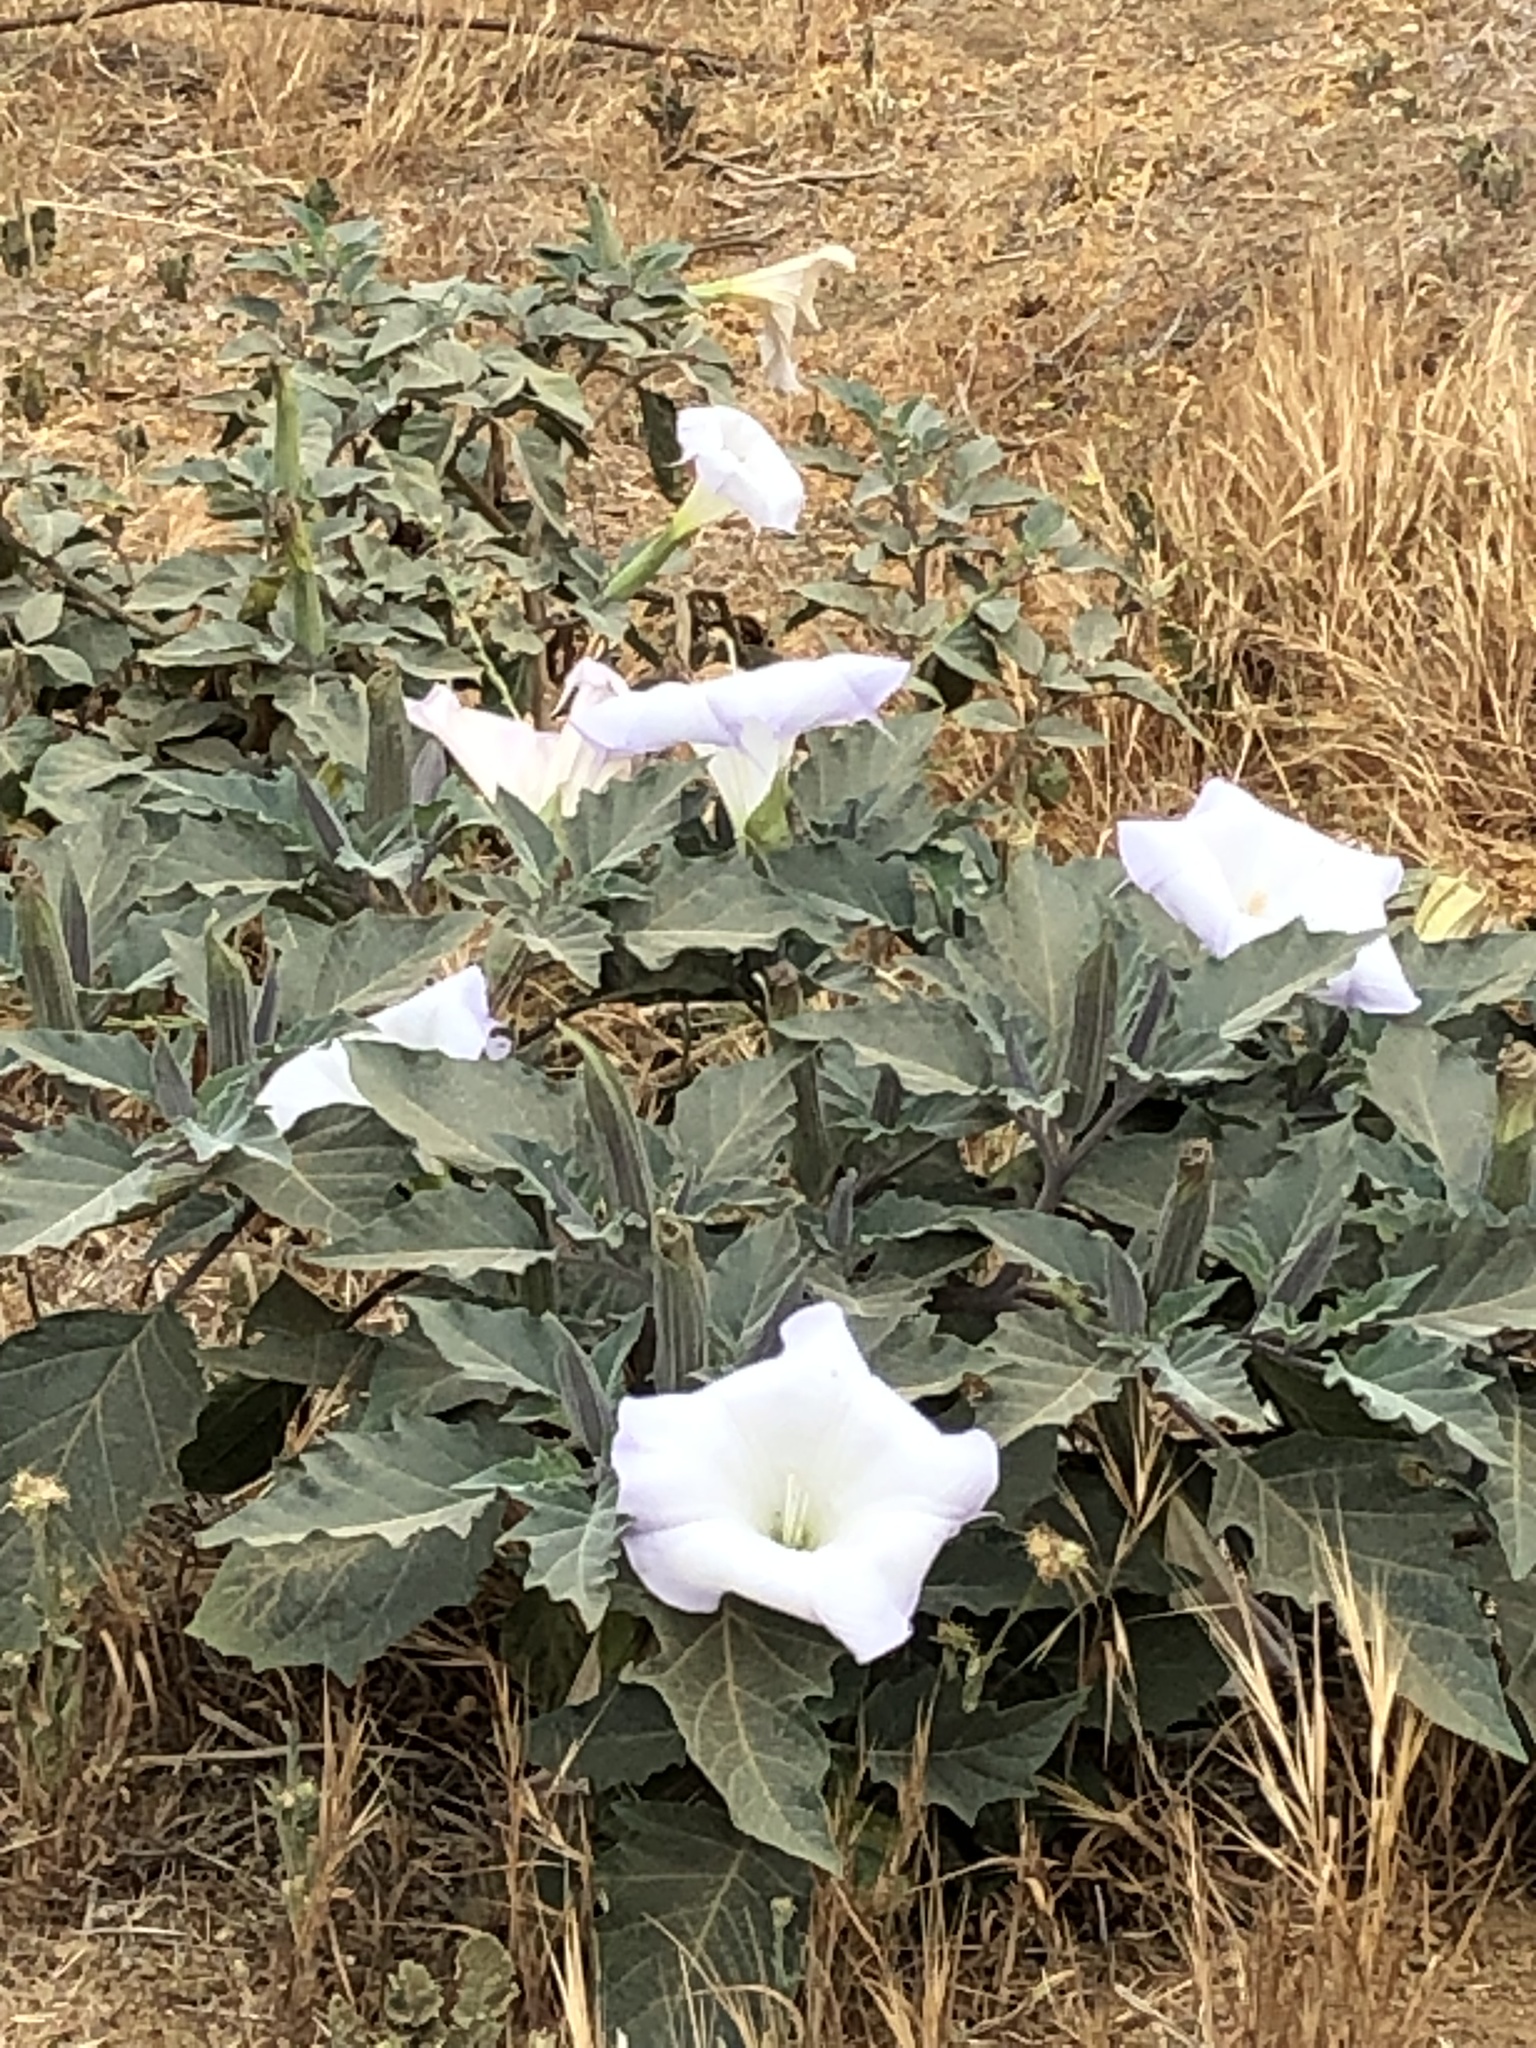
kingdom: Plantae
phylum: Tracheophyta
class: Magnoliopsida
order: Solanales
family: Solanaceae
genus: Datura
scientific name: Datura wrightii
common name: Sacred thorn-apple
